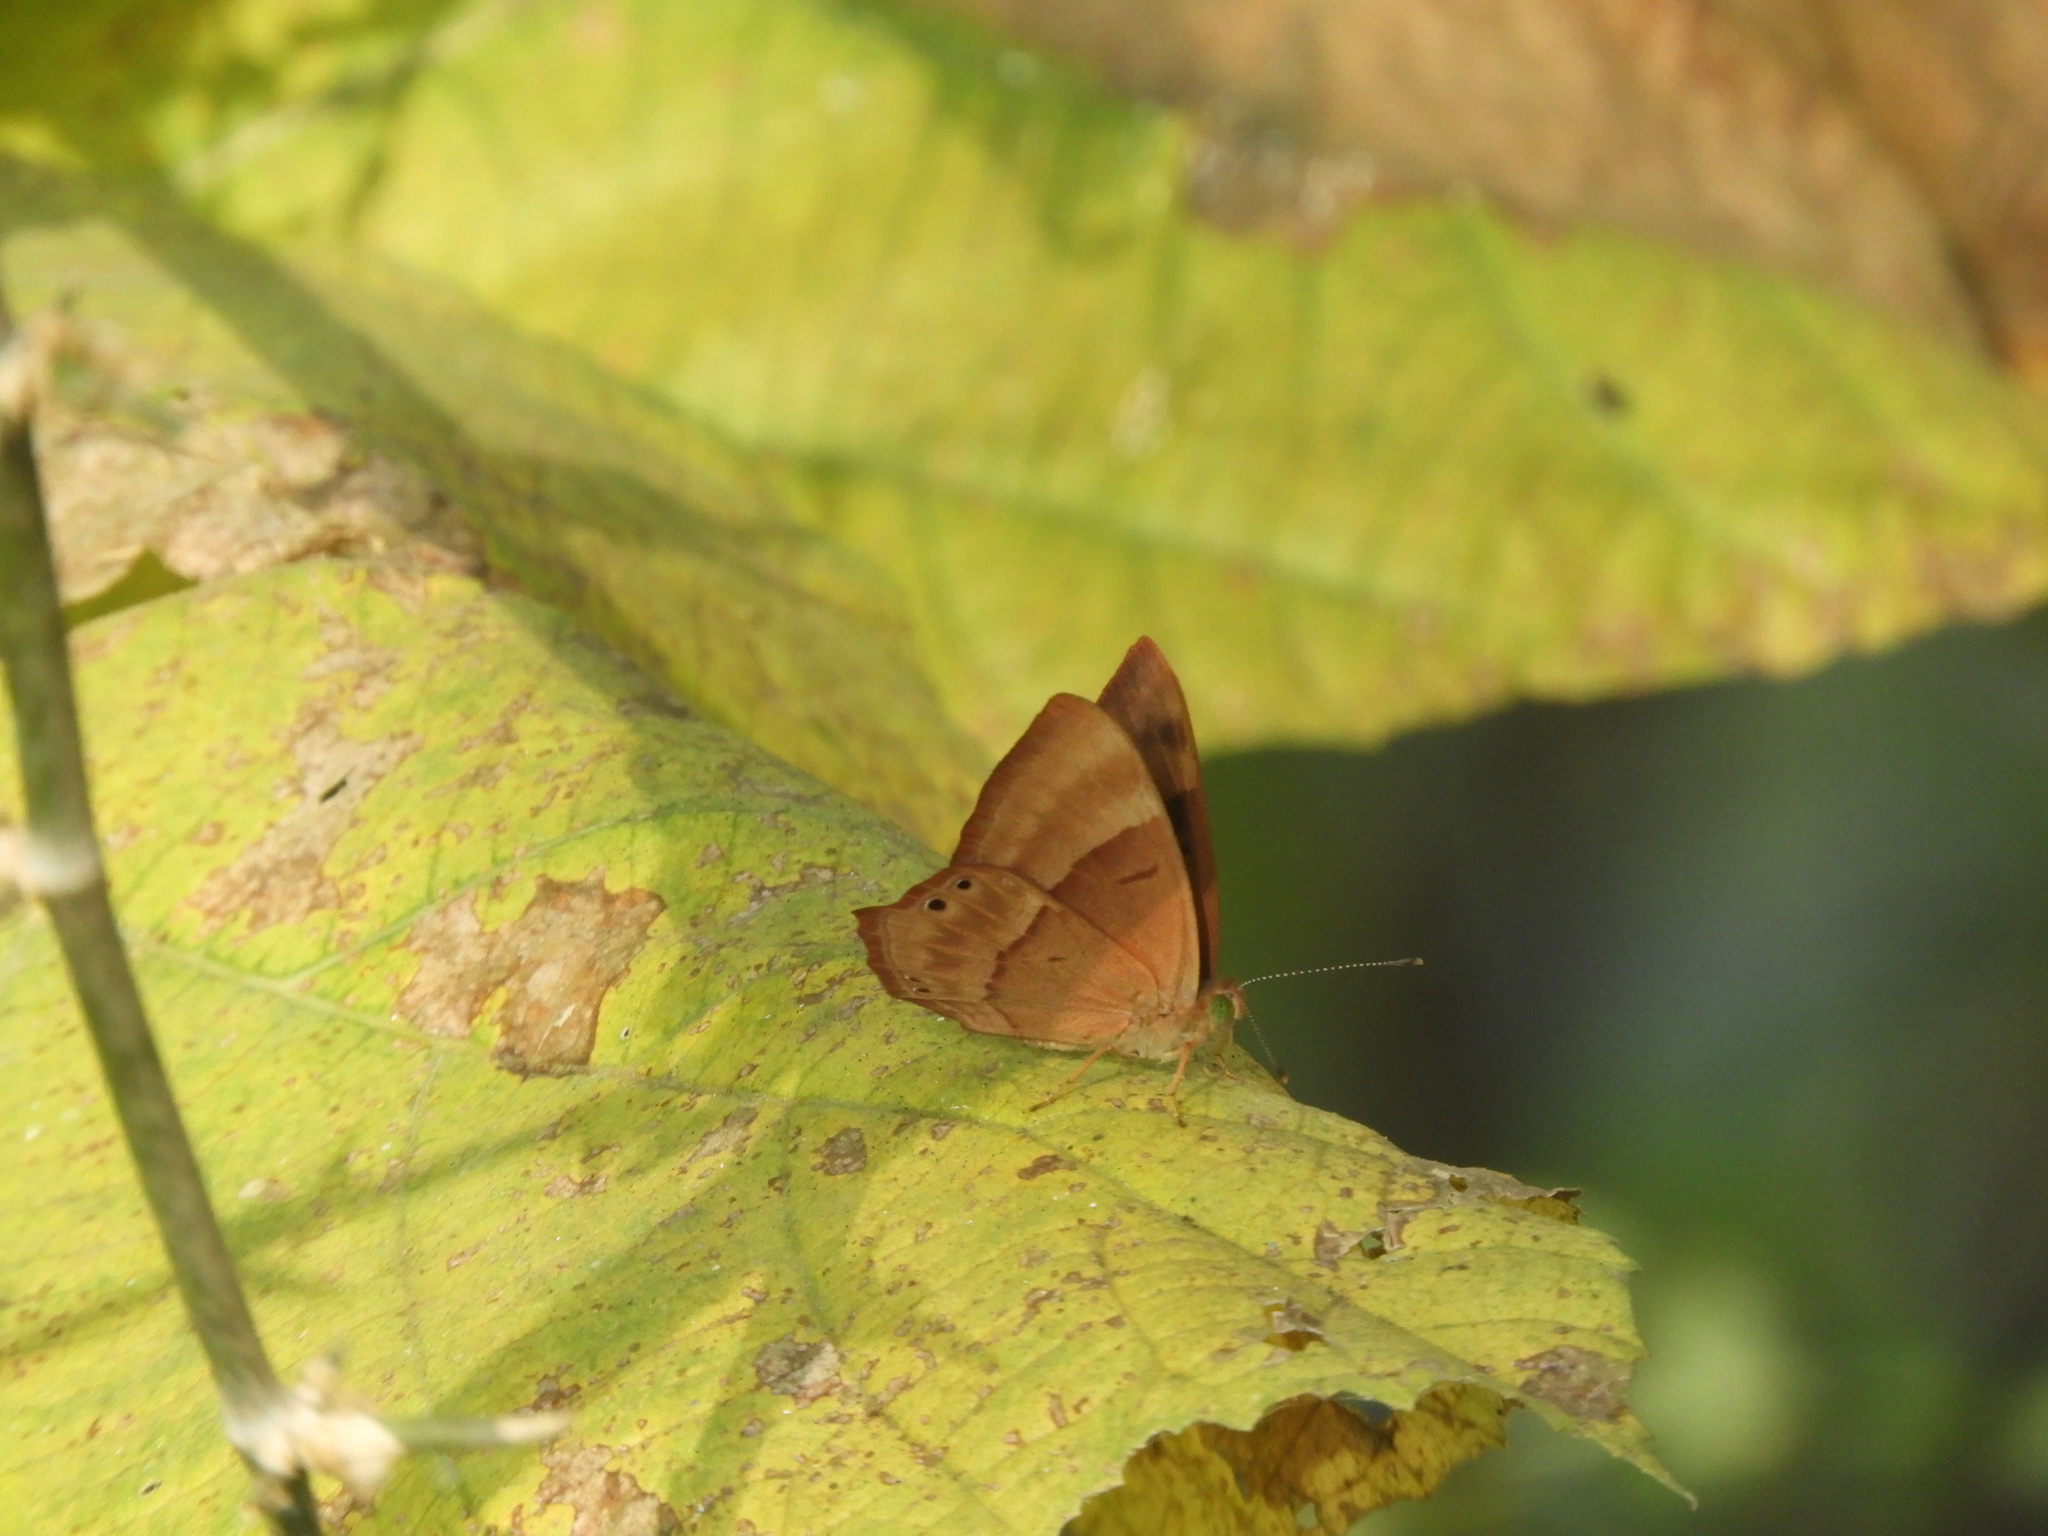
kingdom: Animalia
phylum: Arthropoda
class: Insecta
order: Lepidoptera
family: Lycaenidae
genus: Abisara
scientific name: Abisara bifasciata
